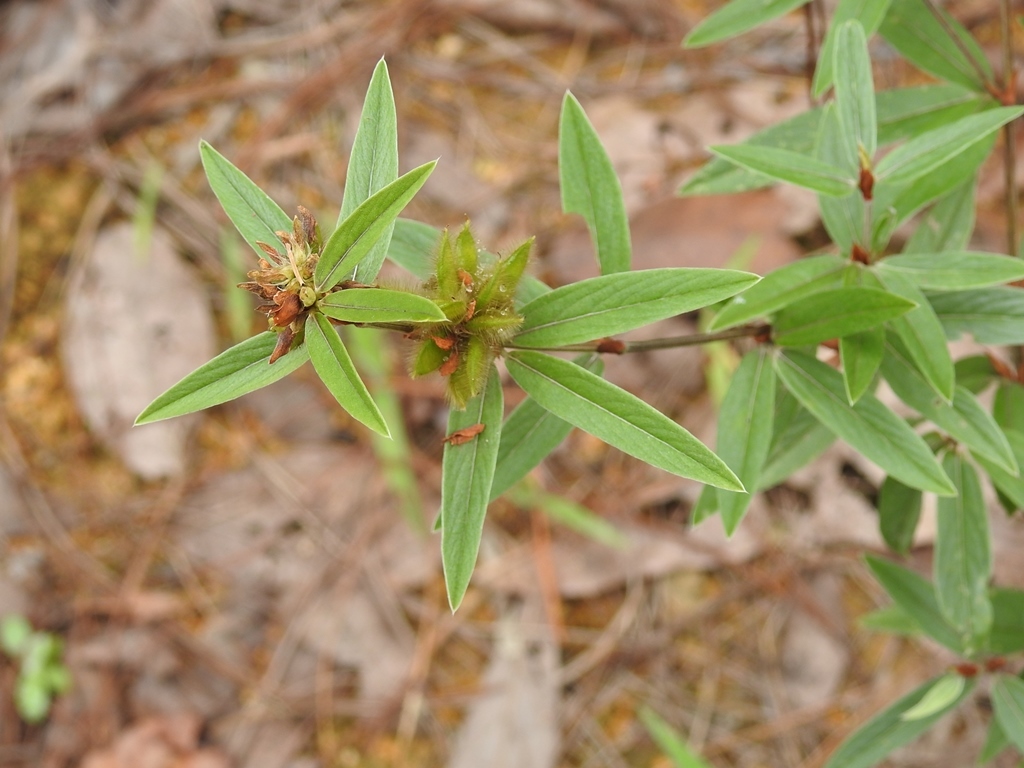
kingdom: Plantae
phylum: Tracheophyta
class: Magnoliopsida
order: Fabales
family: Fabaceae
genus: Eriosema
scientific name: Eriosema crinitum
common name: Sand pea
